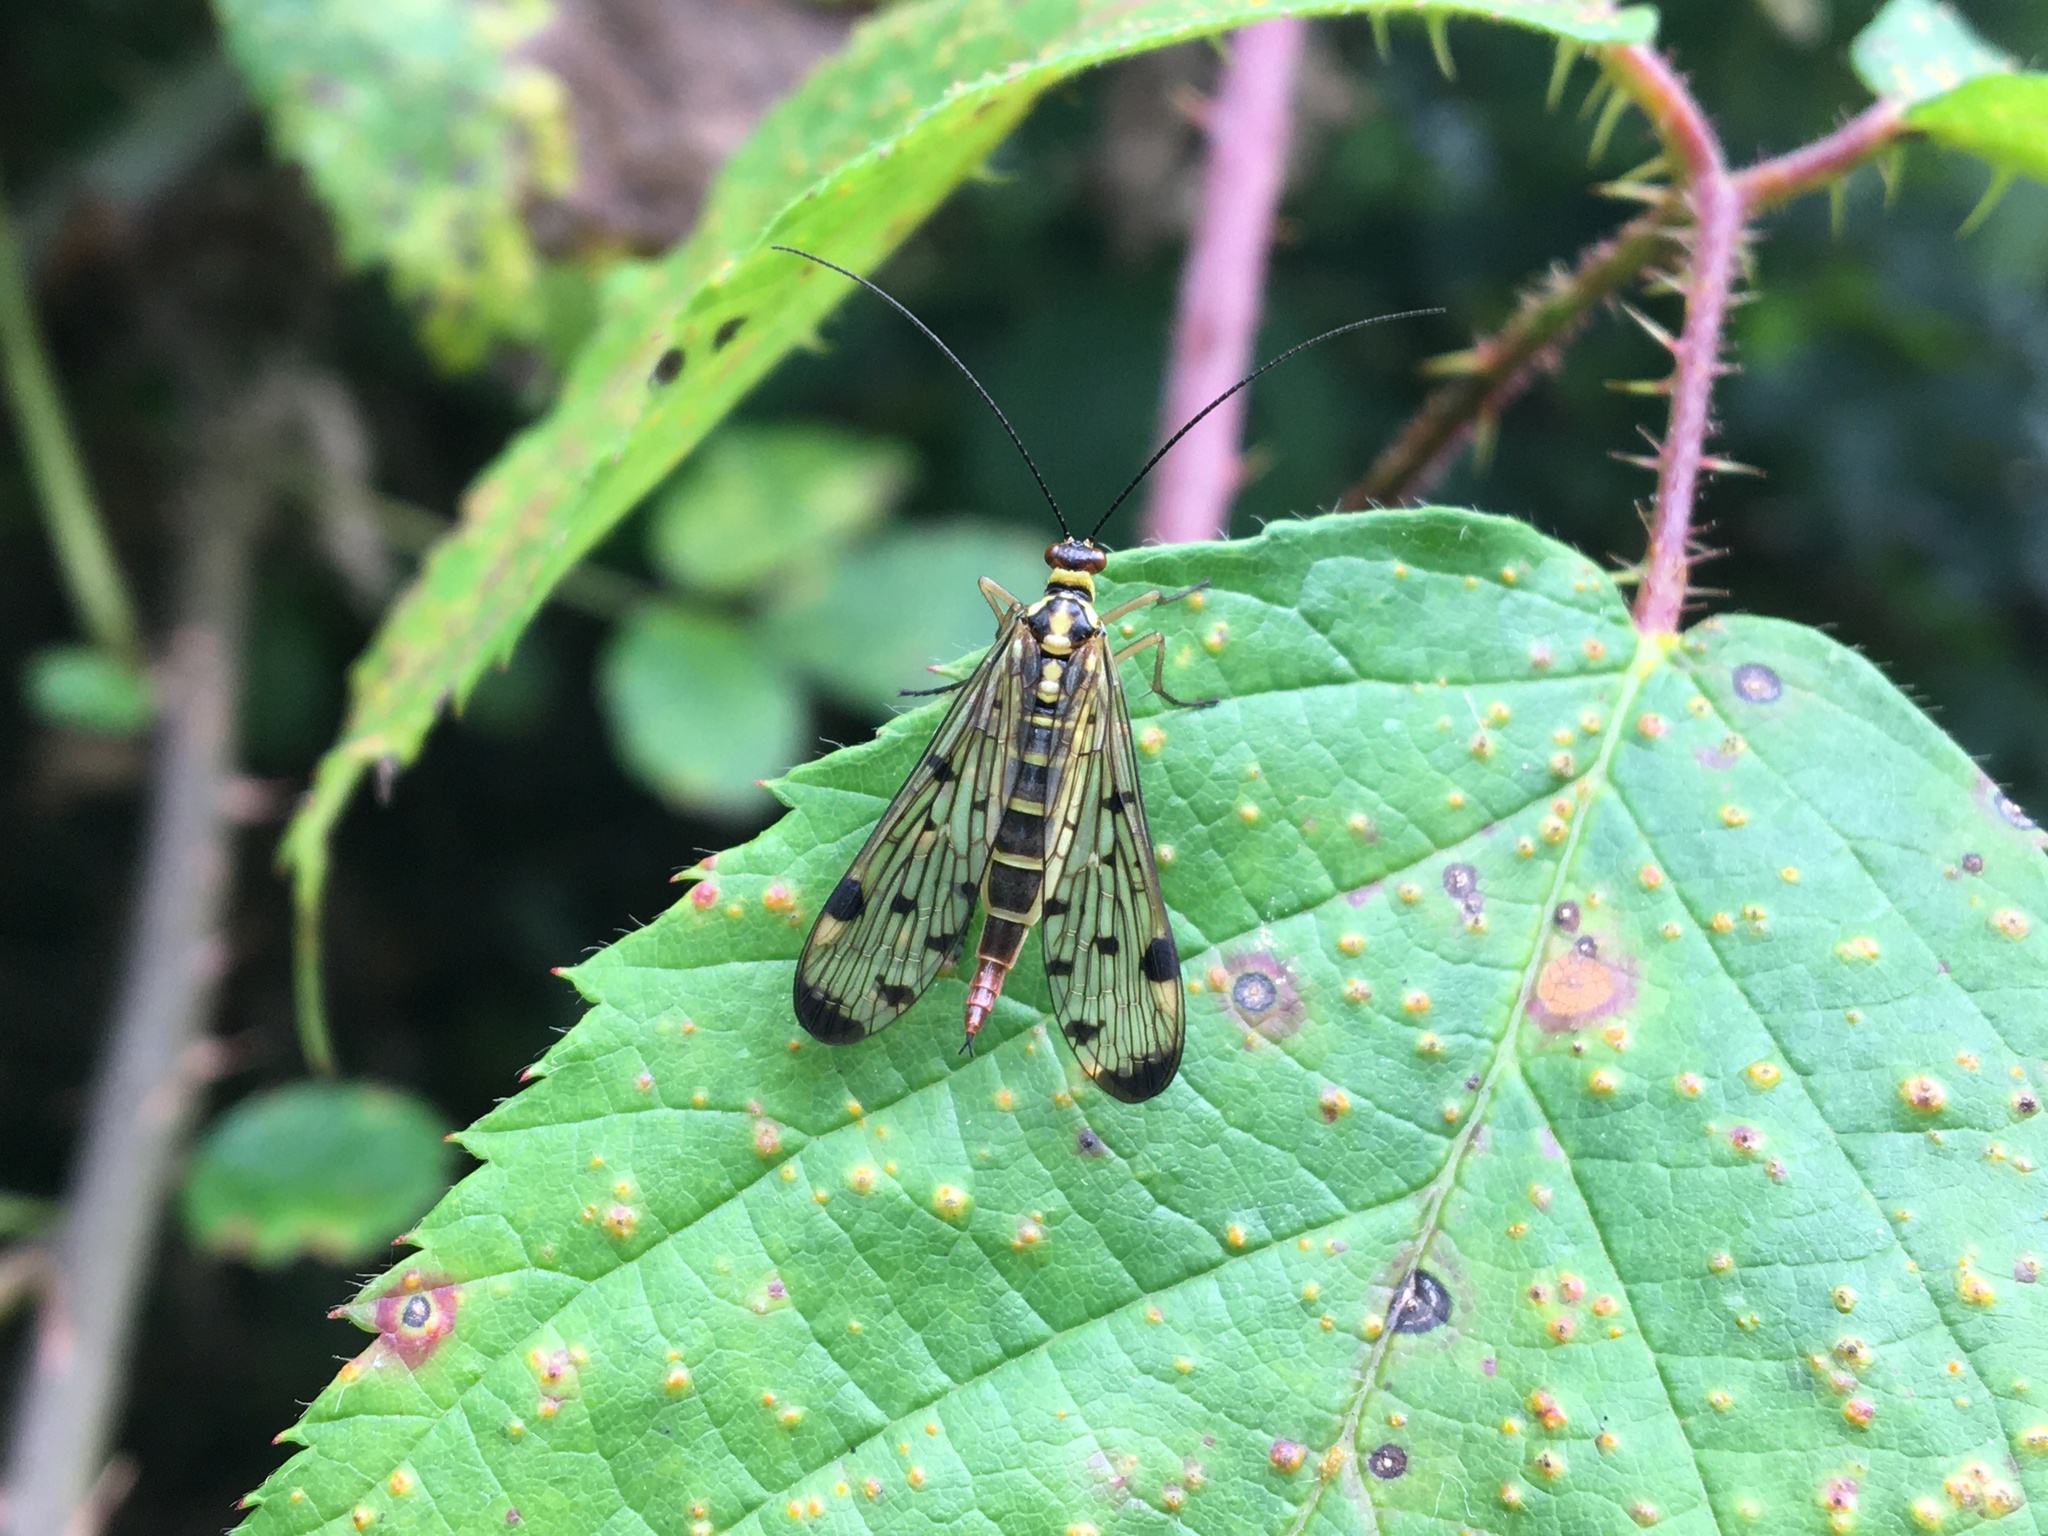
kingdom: Animalia
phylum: Arthropoda
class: Insecta
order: Mecoptera
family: Panorpidae
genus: Panorpa
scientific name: Panorpa germanica
